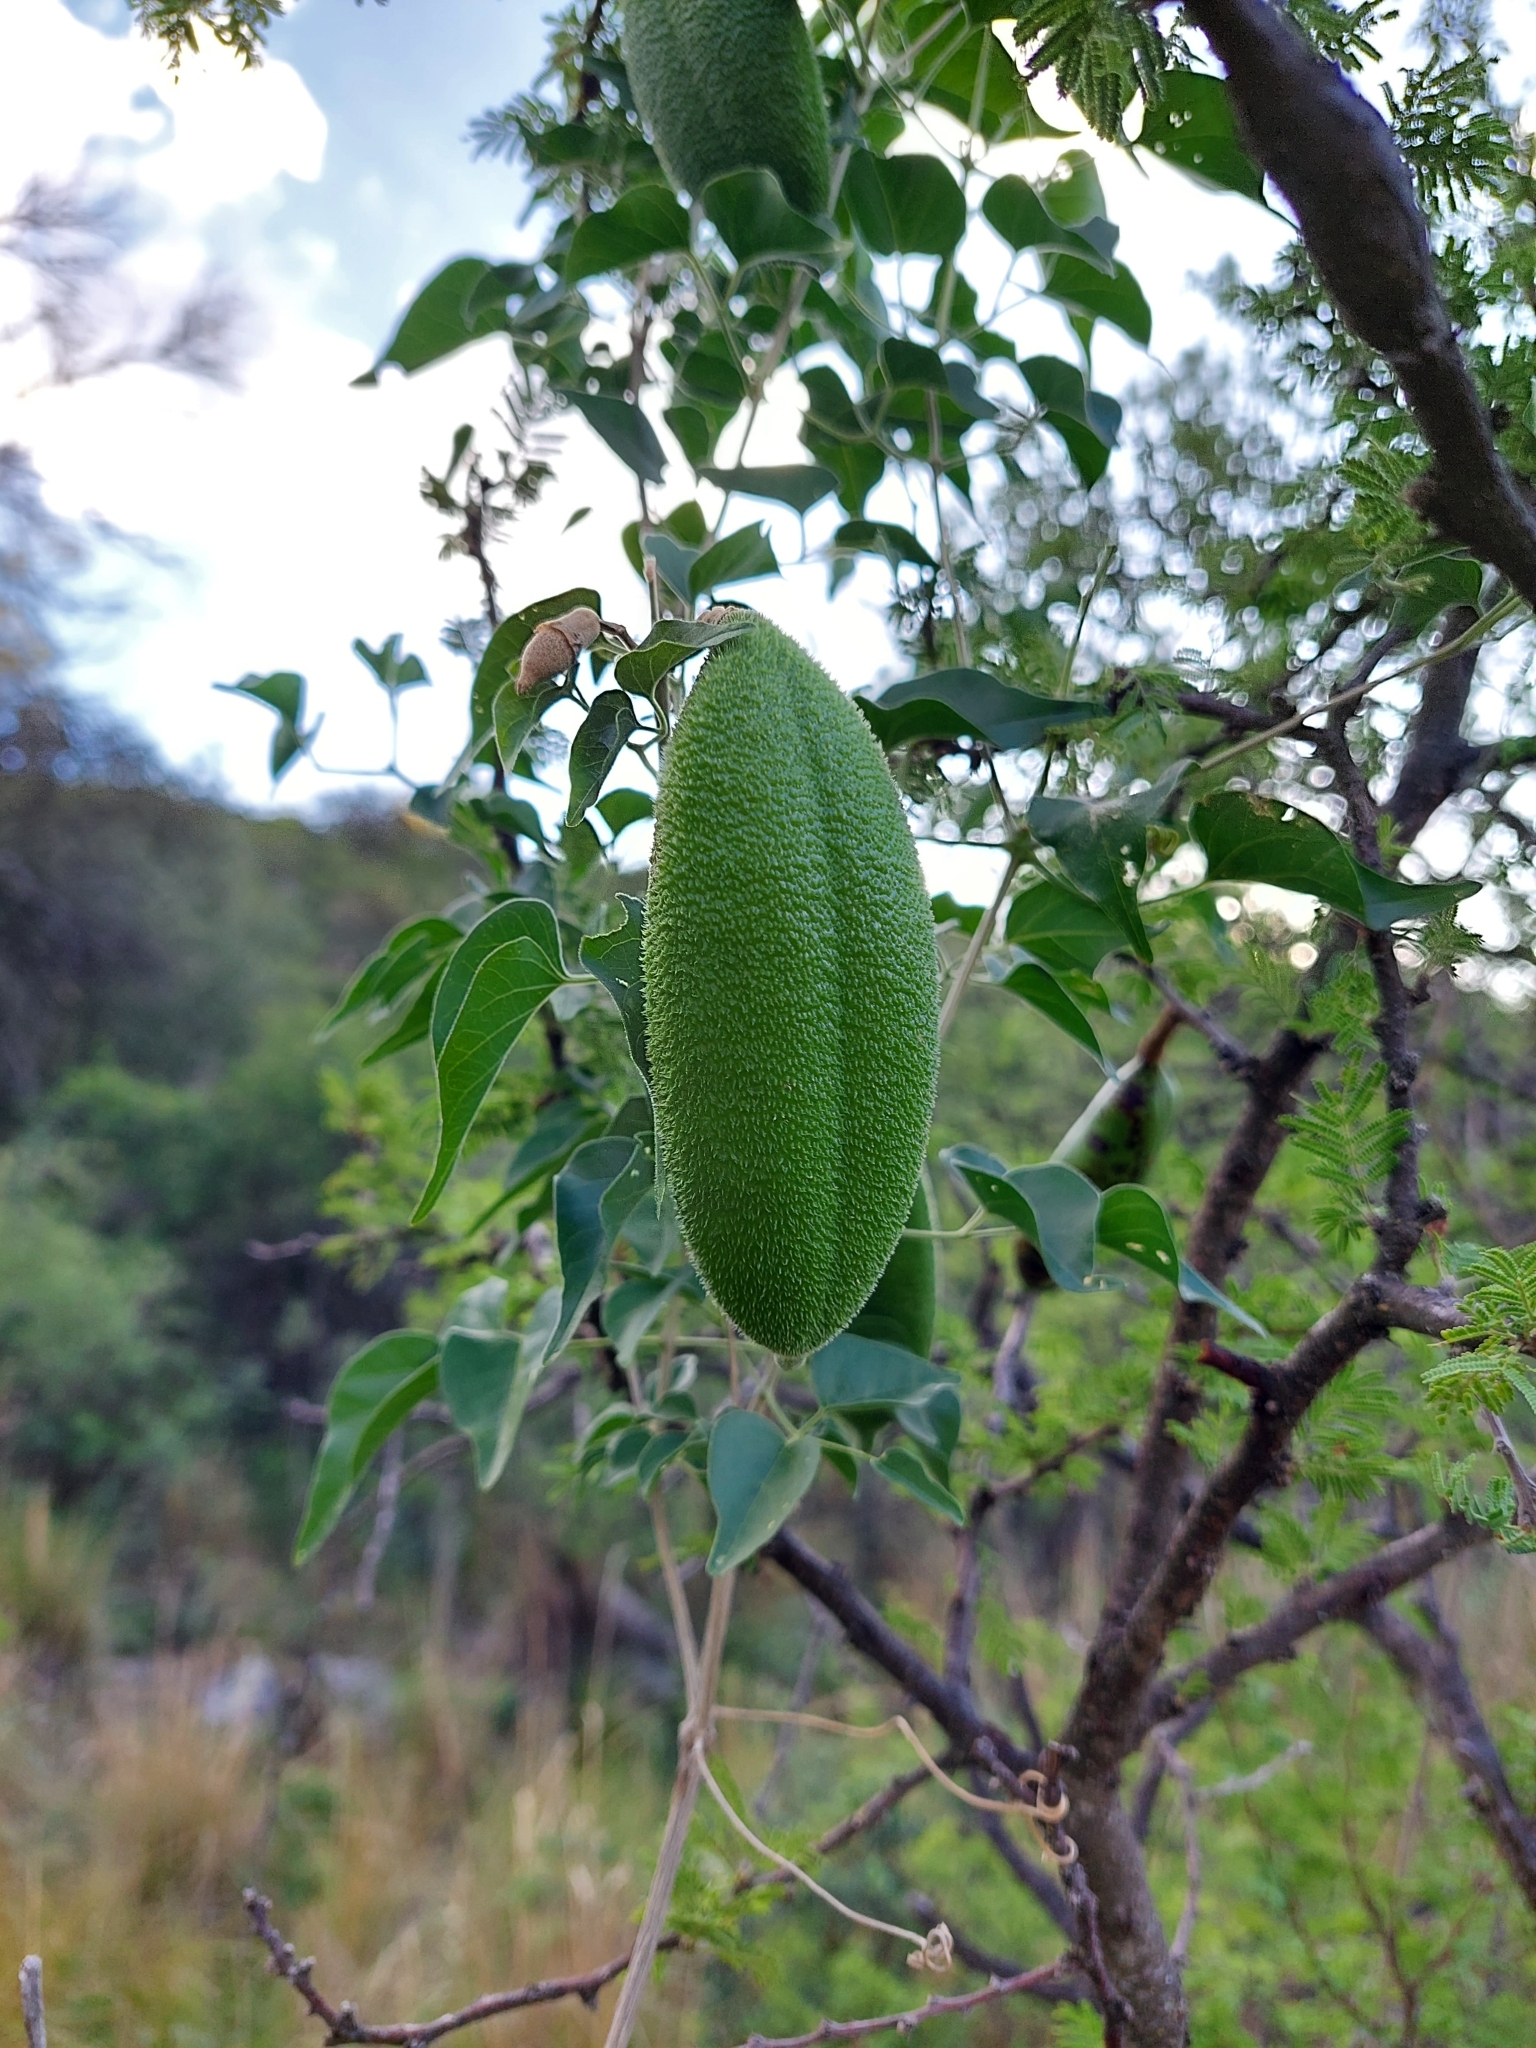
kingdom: Plantae
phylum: Tracheophyta
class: Magnoliopsida
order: Lamiales
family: Bignoniaceae
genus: Amphilophium
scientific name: Amphilophium carolinae
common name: Monkey's-comb
